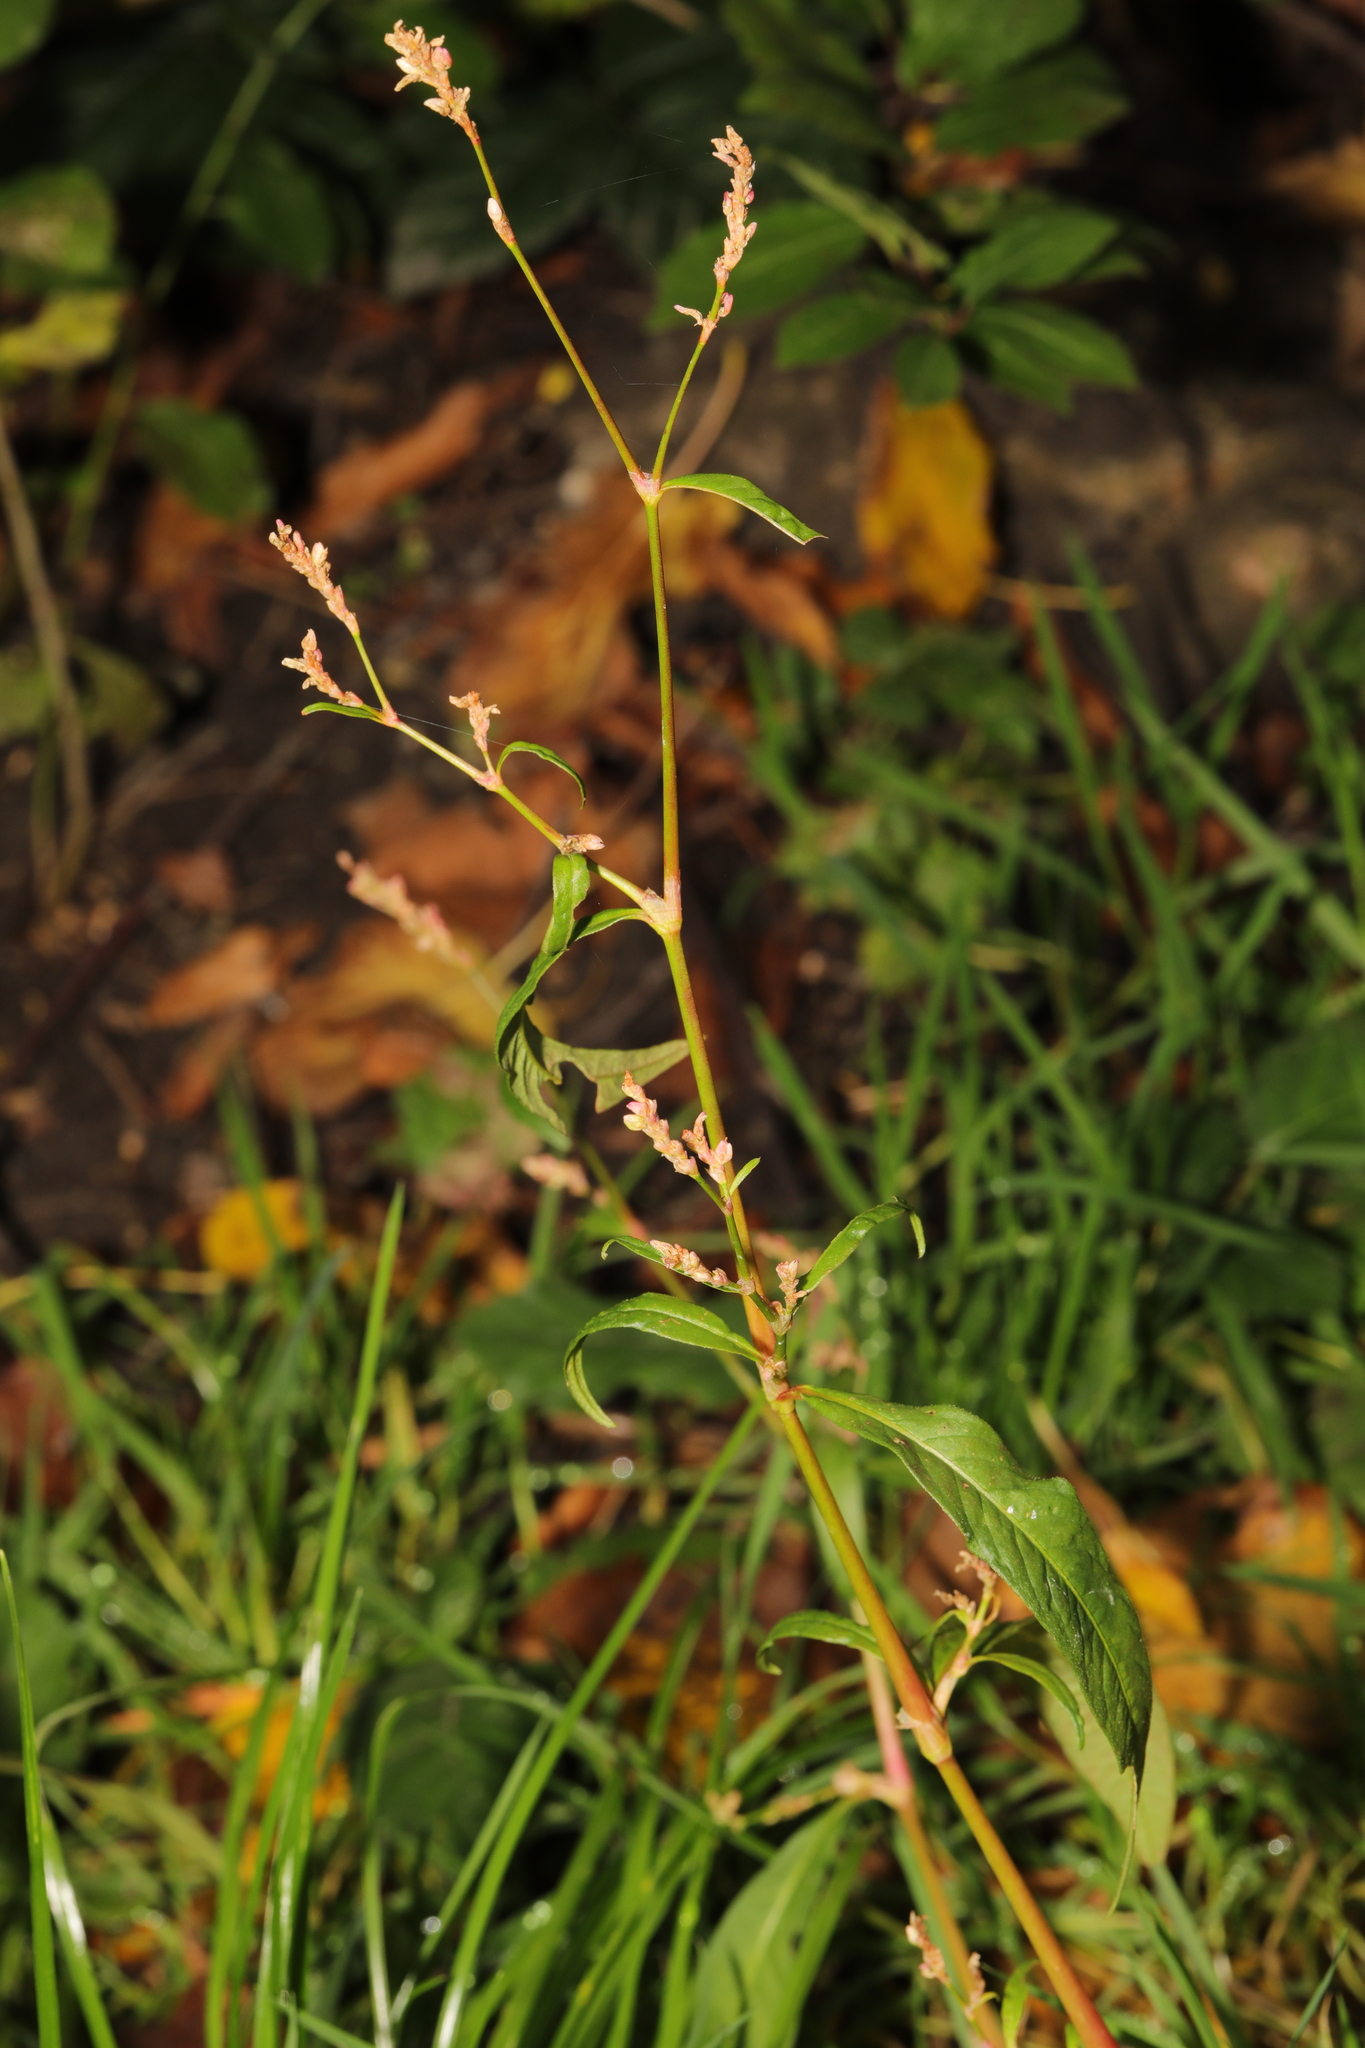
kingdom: Plantae
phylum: Tracheophyta
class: Magnoliopsida
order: Caryophyllales
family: Polygonaceae
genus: Persicaria
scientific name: Persicaria maculosa
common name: Redshank
